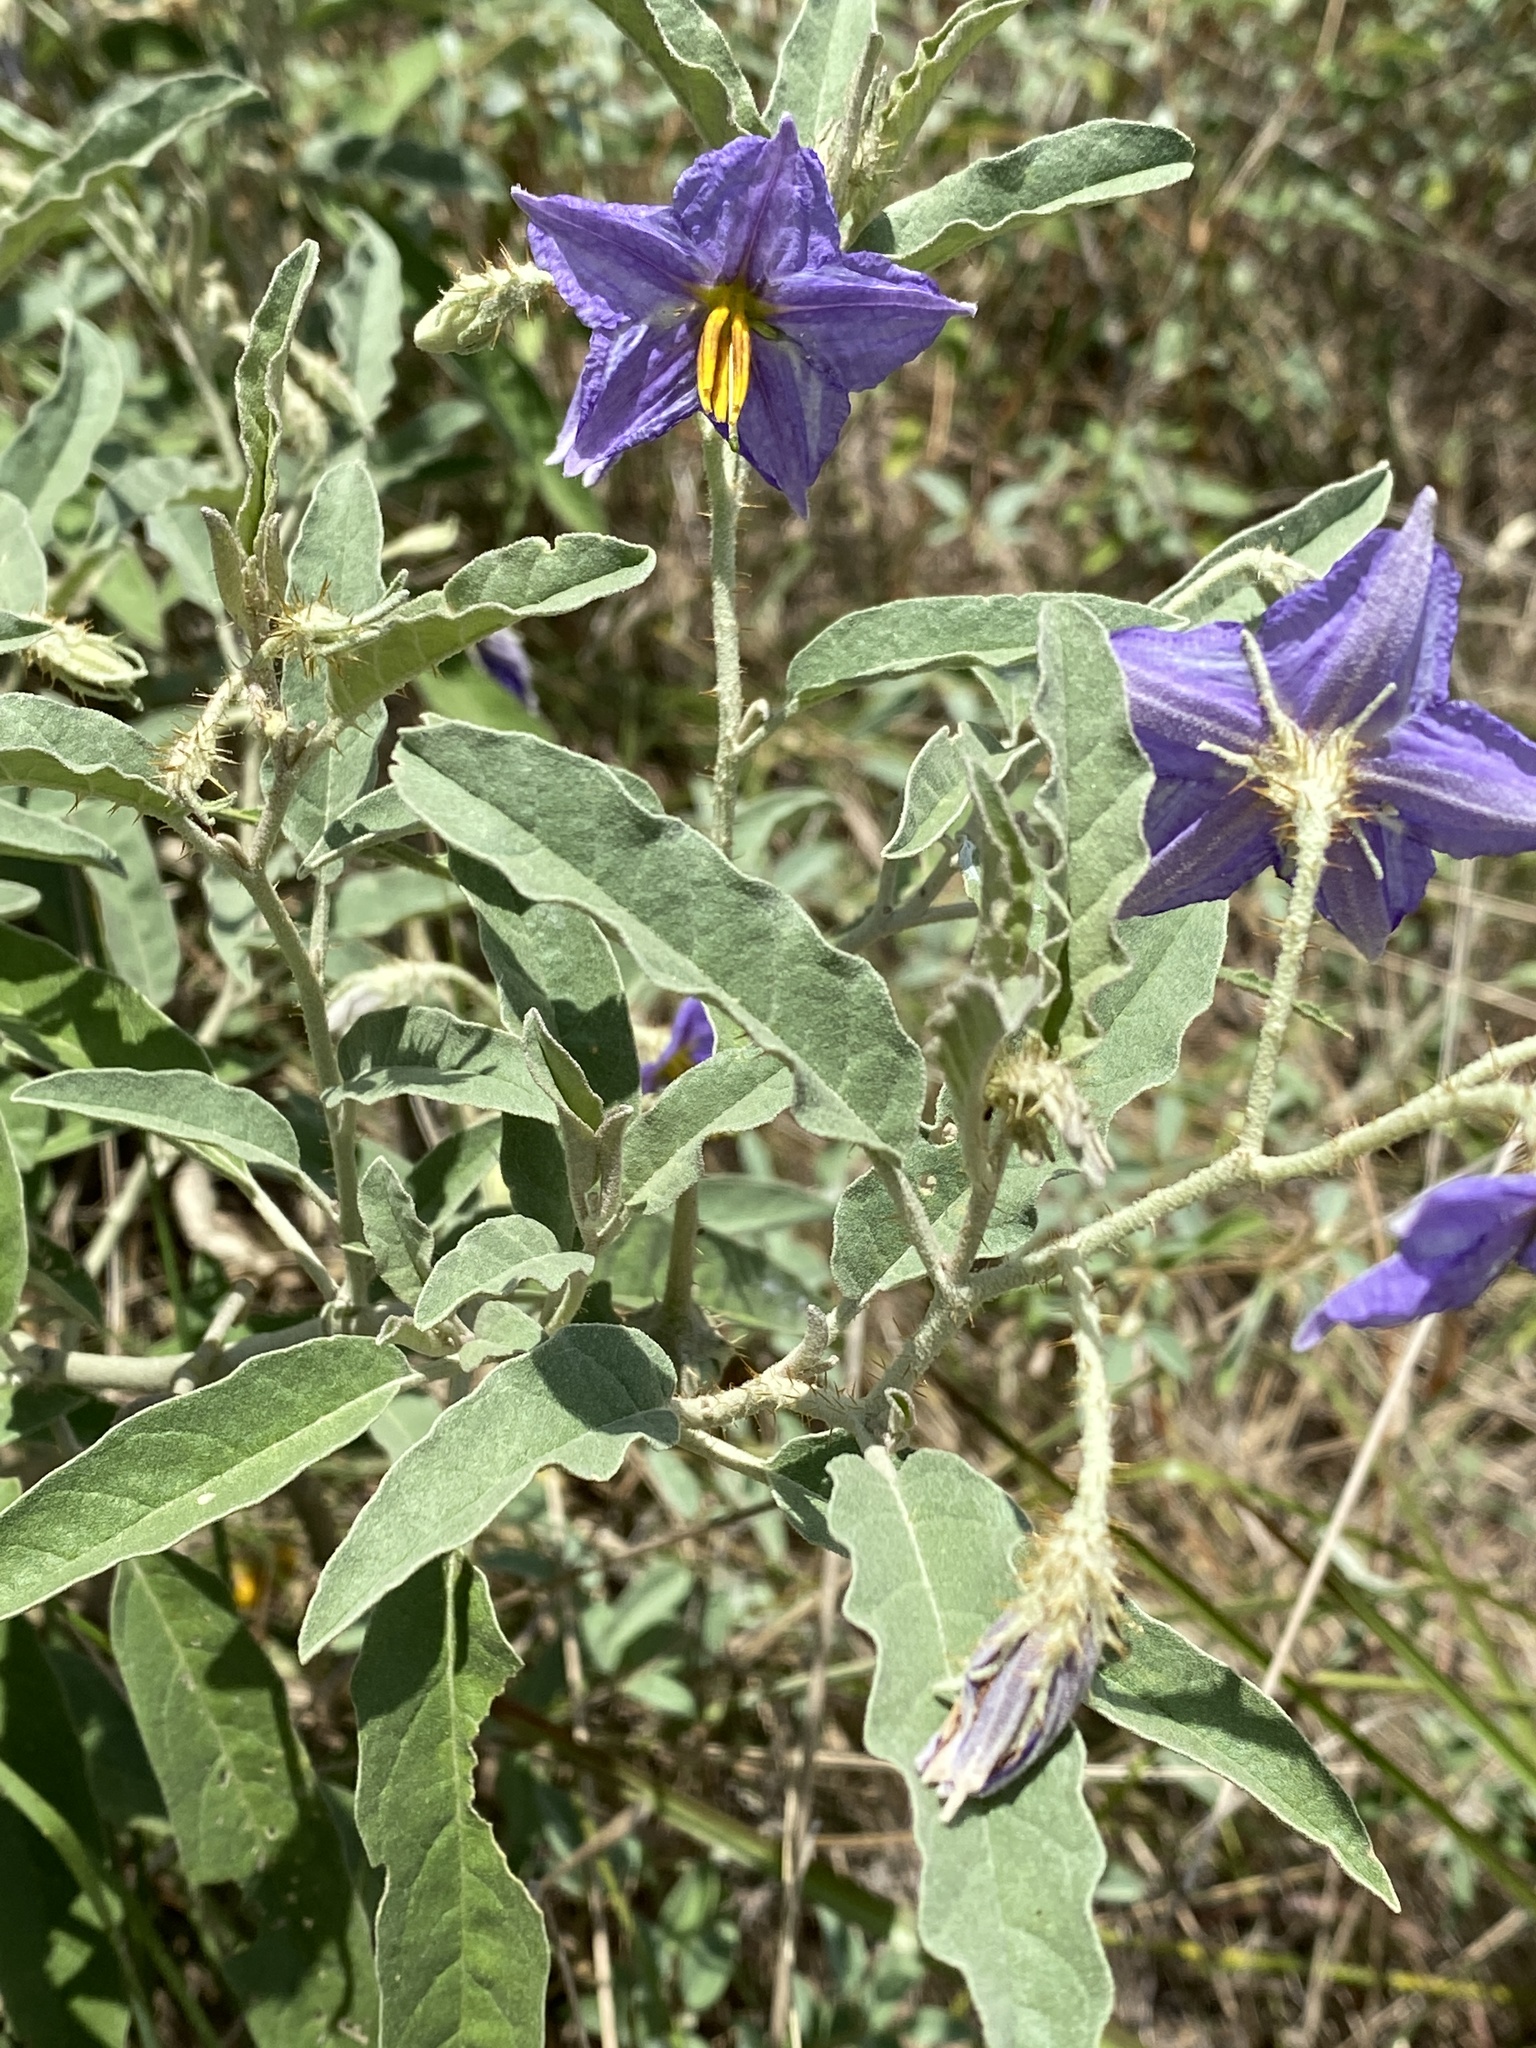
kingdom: Plantae
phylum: Tracheophyta
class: Magnoliopsida
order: Solanales
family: Solanaceae
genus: Solanum
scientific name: Solanum elaeagnifolium
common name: Silverleaf nightshade
